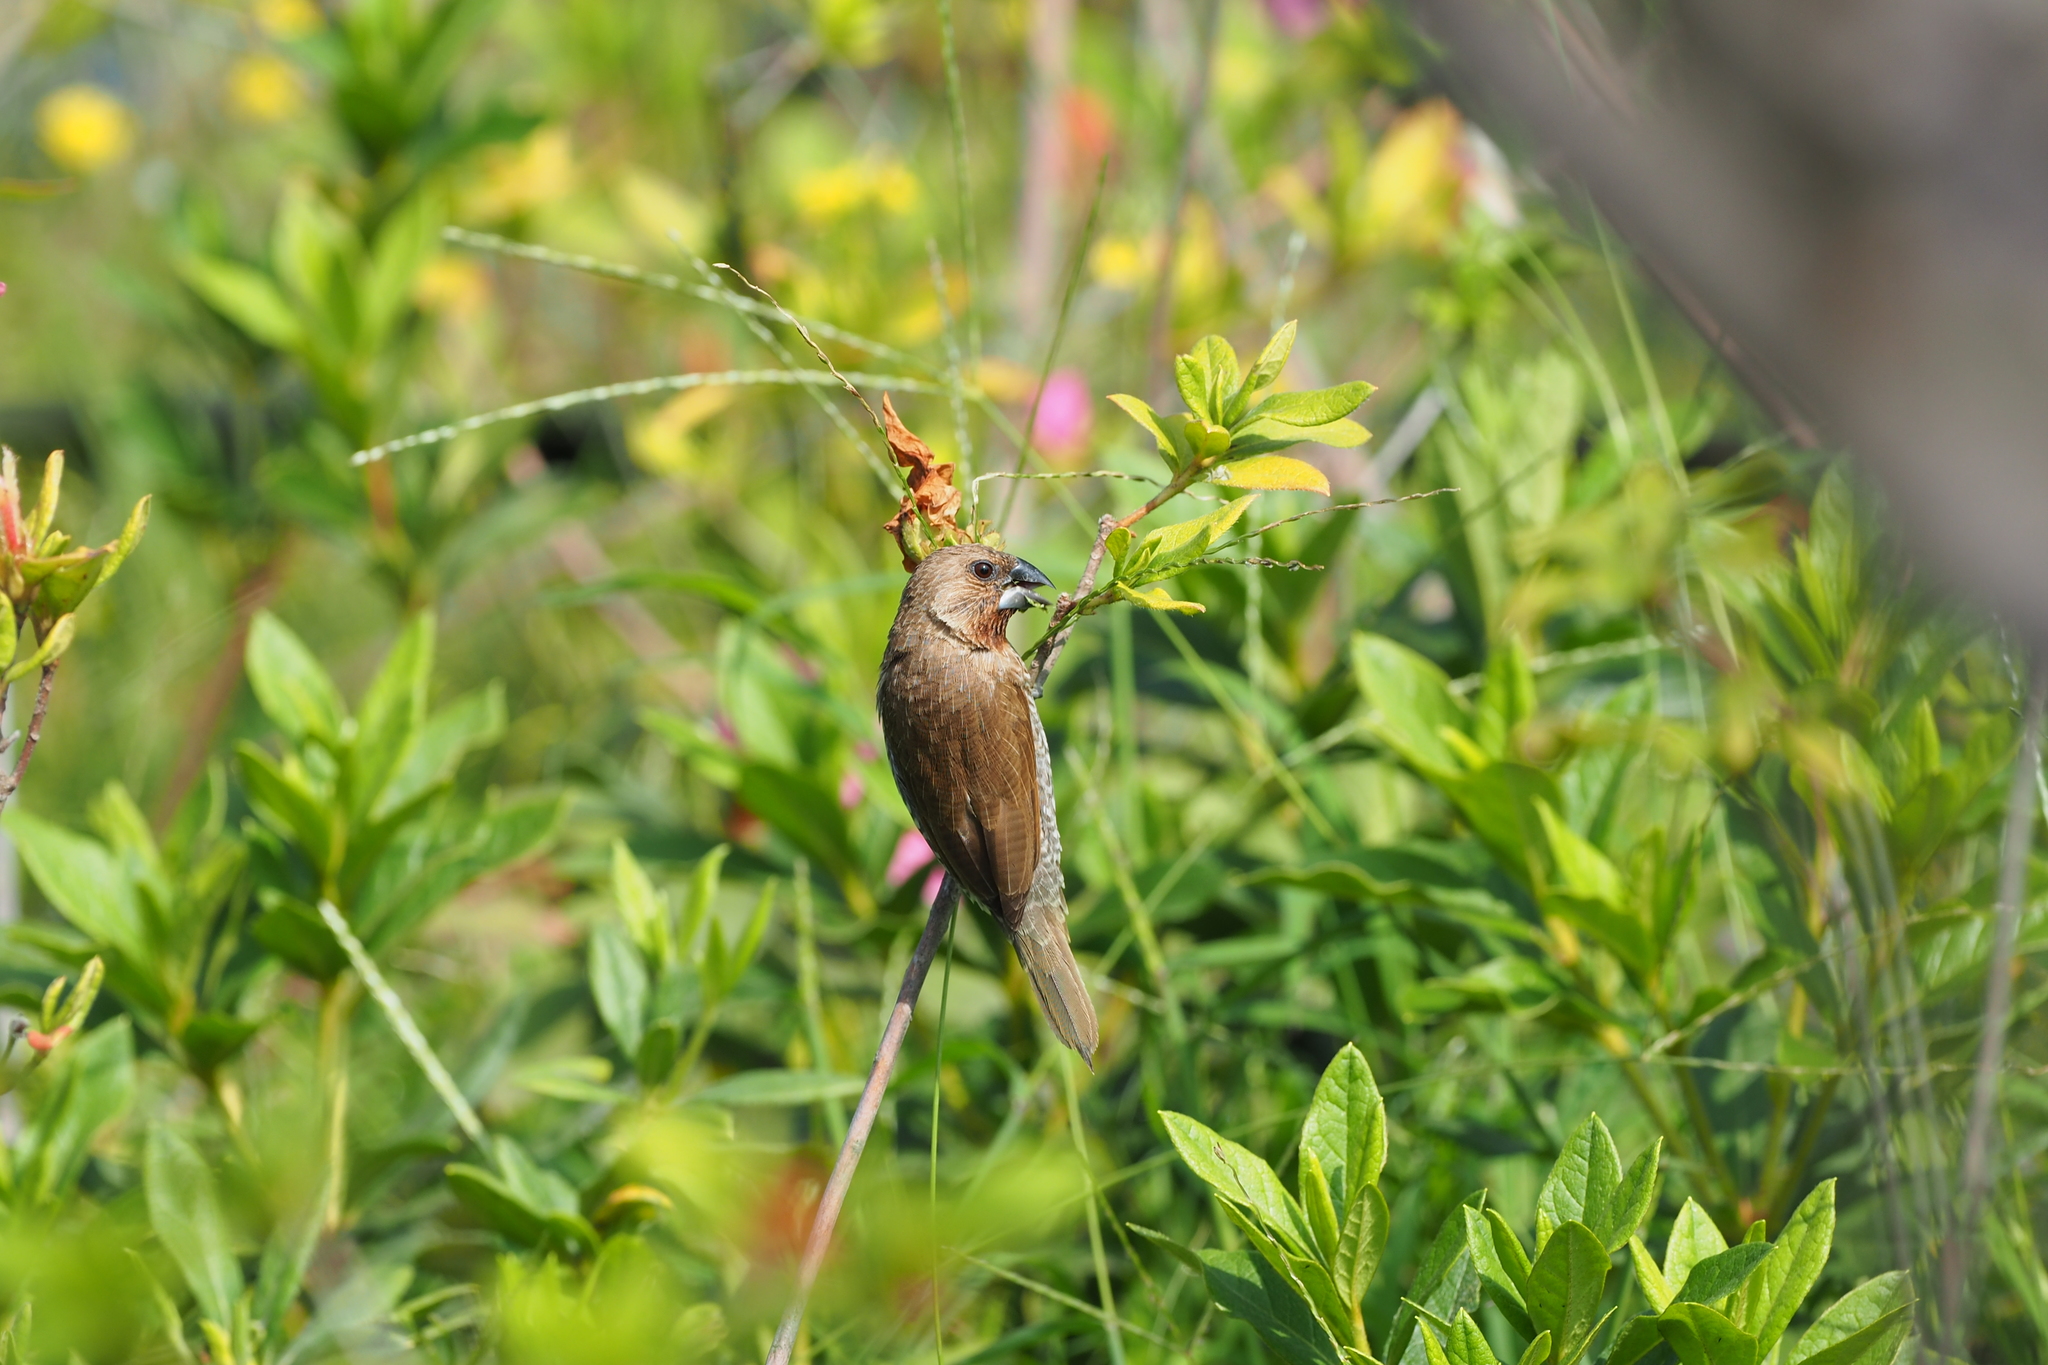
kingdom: Animalia
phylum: Chordata
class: Aves
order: Passeriformes
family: Estrildidae
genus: Lonchura
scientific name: Lonchura punctulata
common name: Scaly-breasted munia
